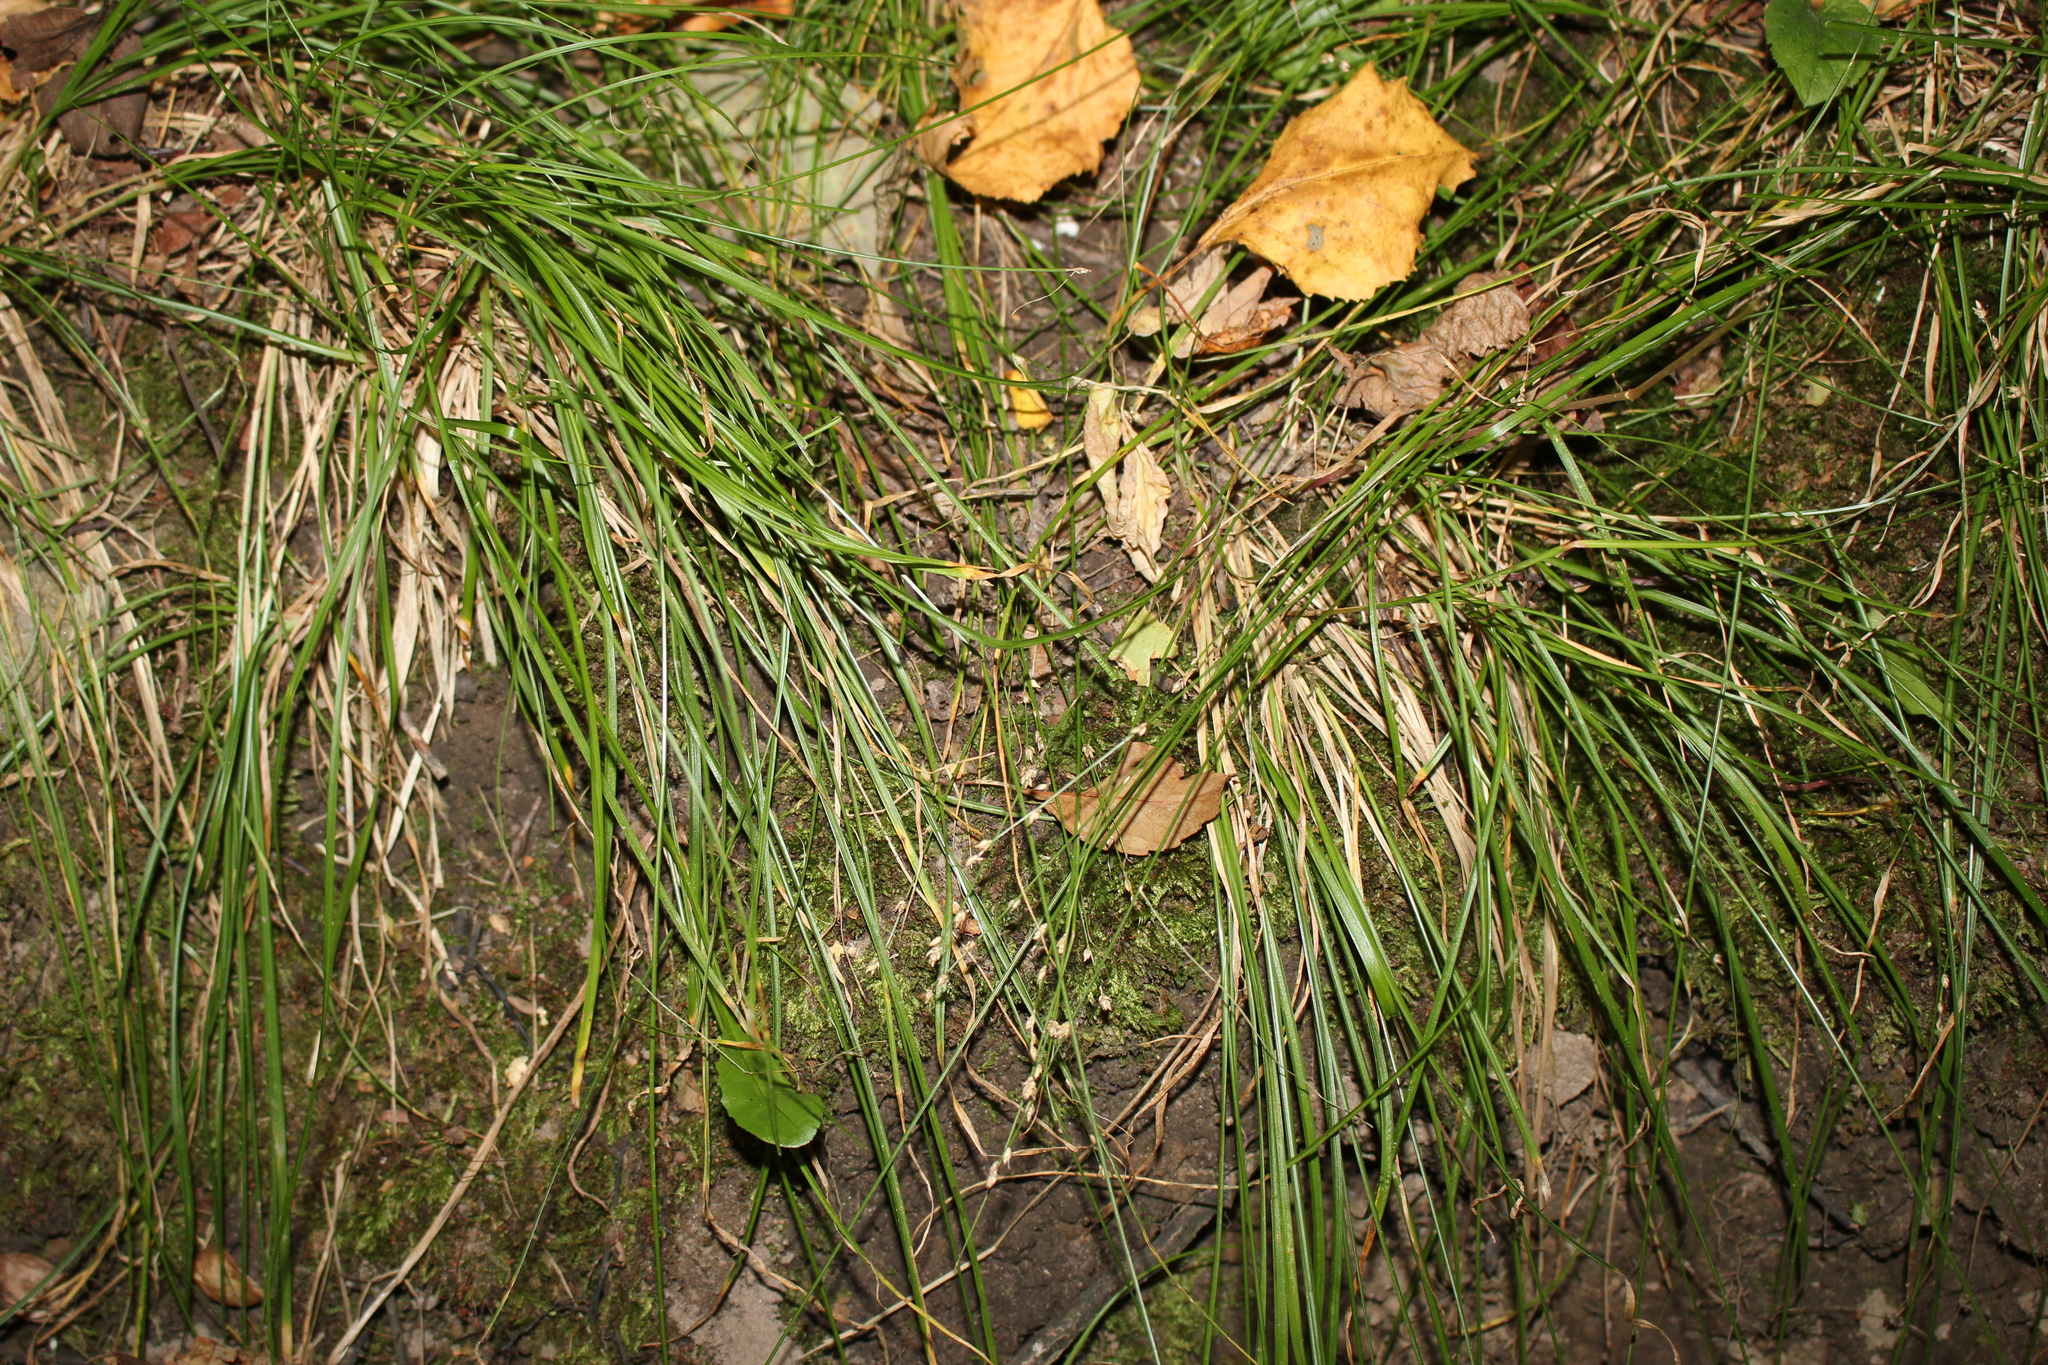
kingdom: Plantae
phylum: Tracheophyta
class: Liliopsida
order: Poales
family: Cyperaceae
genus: Carex
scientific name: Carex brunnescens
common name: Brown sedge
